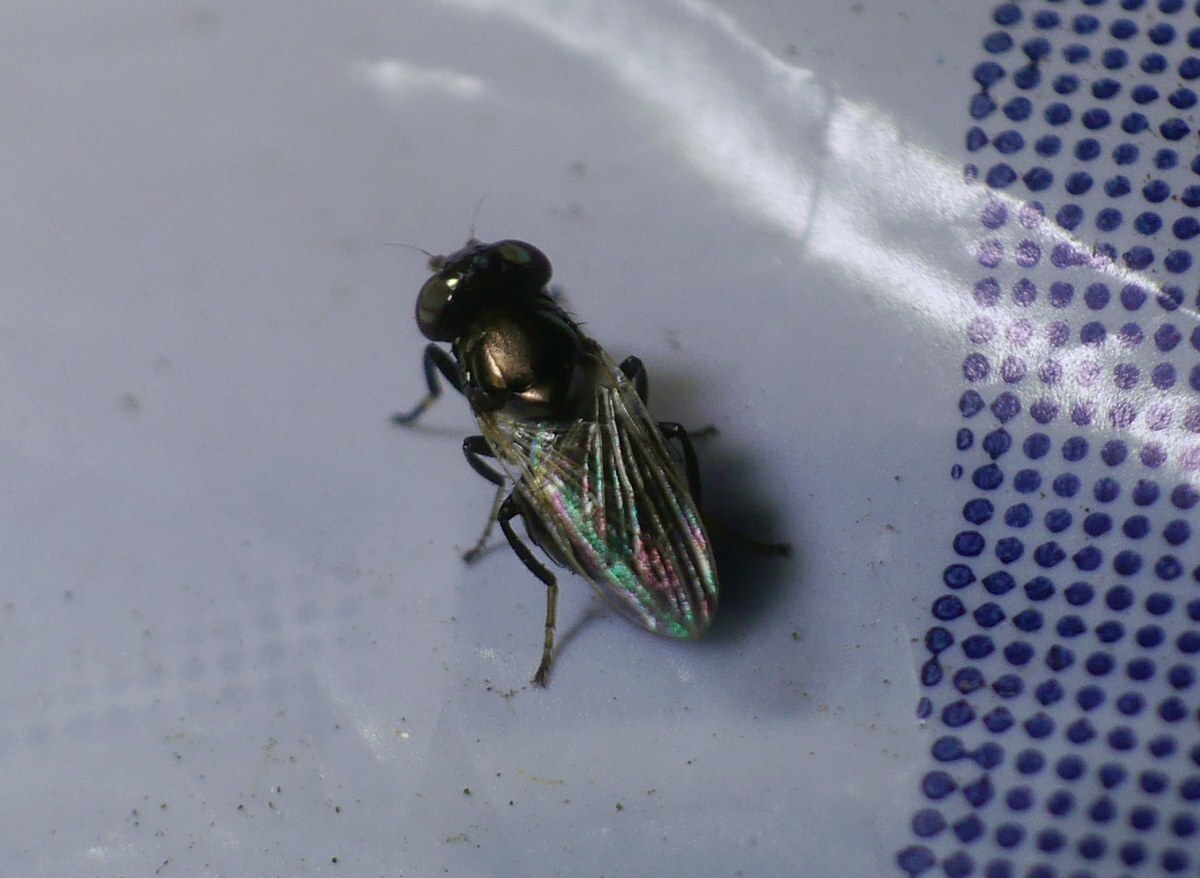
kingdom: Animalia
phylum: Arthropoda
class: Insecta
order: Diptera
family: Ulidiidae
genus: Physiphora
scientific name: Physiphora alceae
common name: Picture-winged fly
